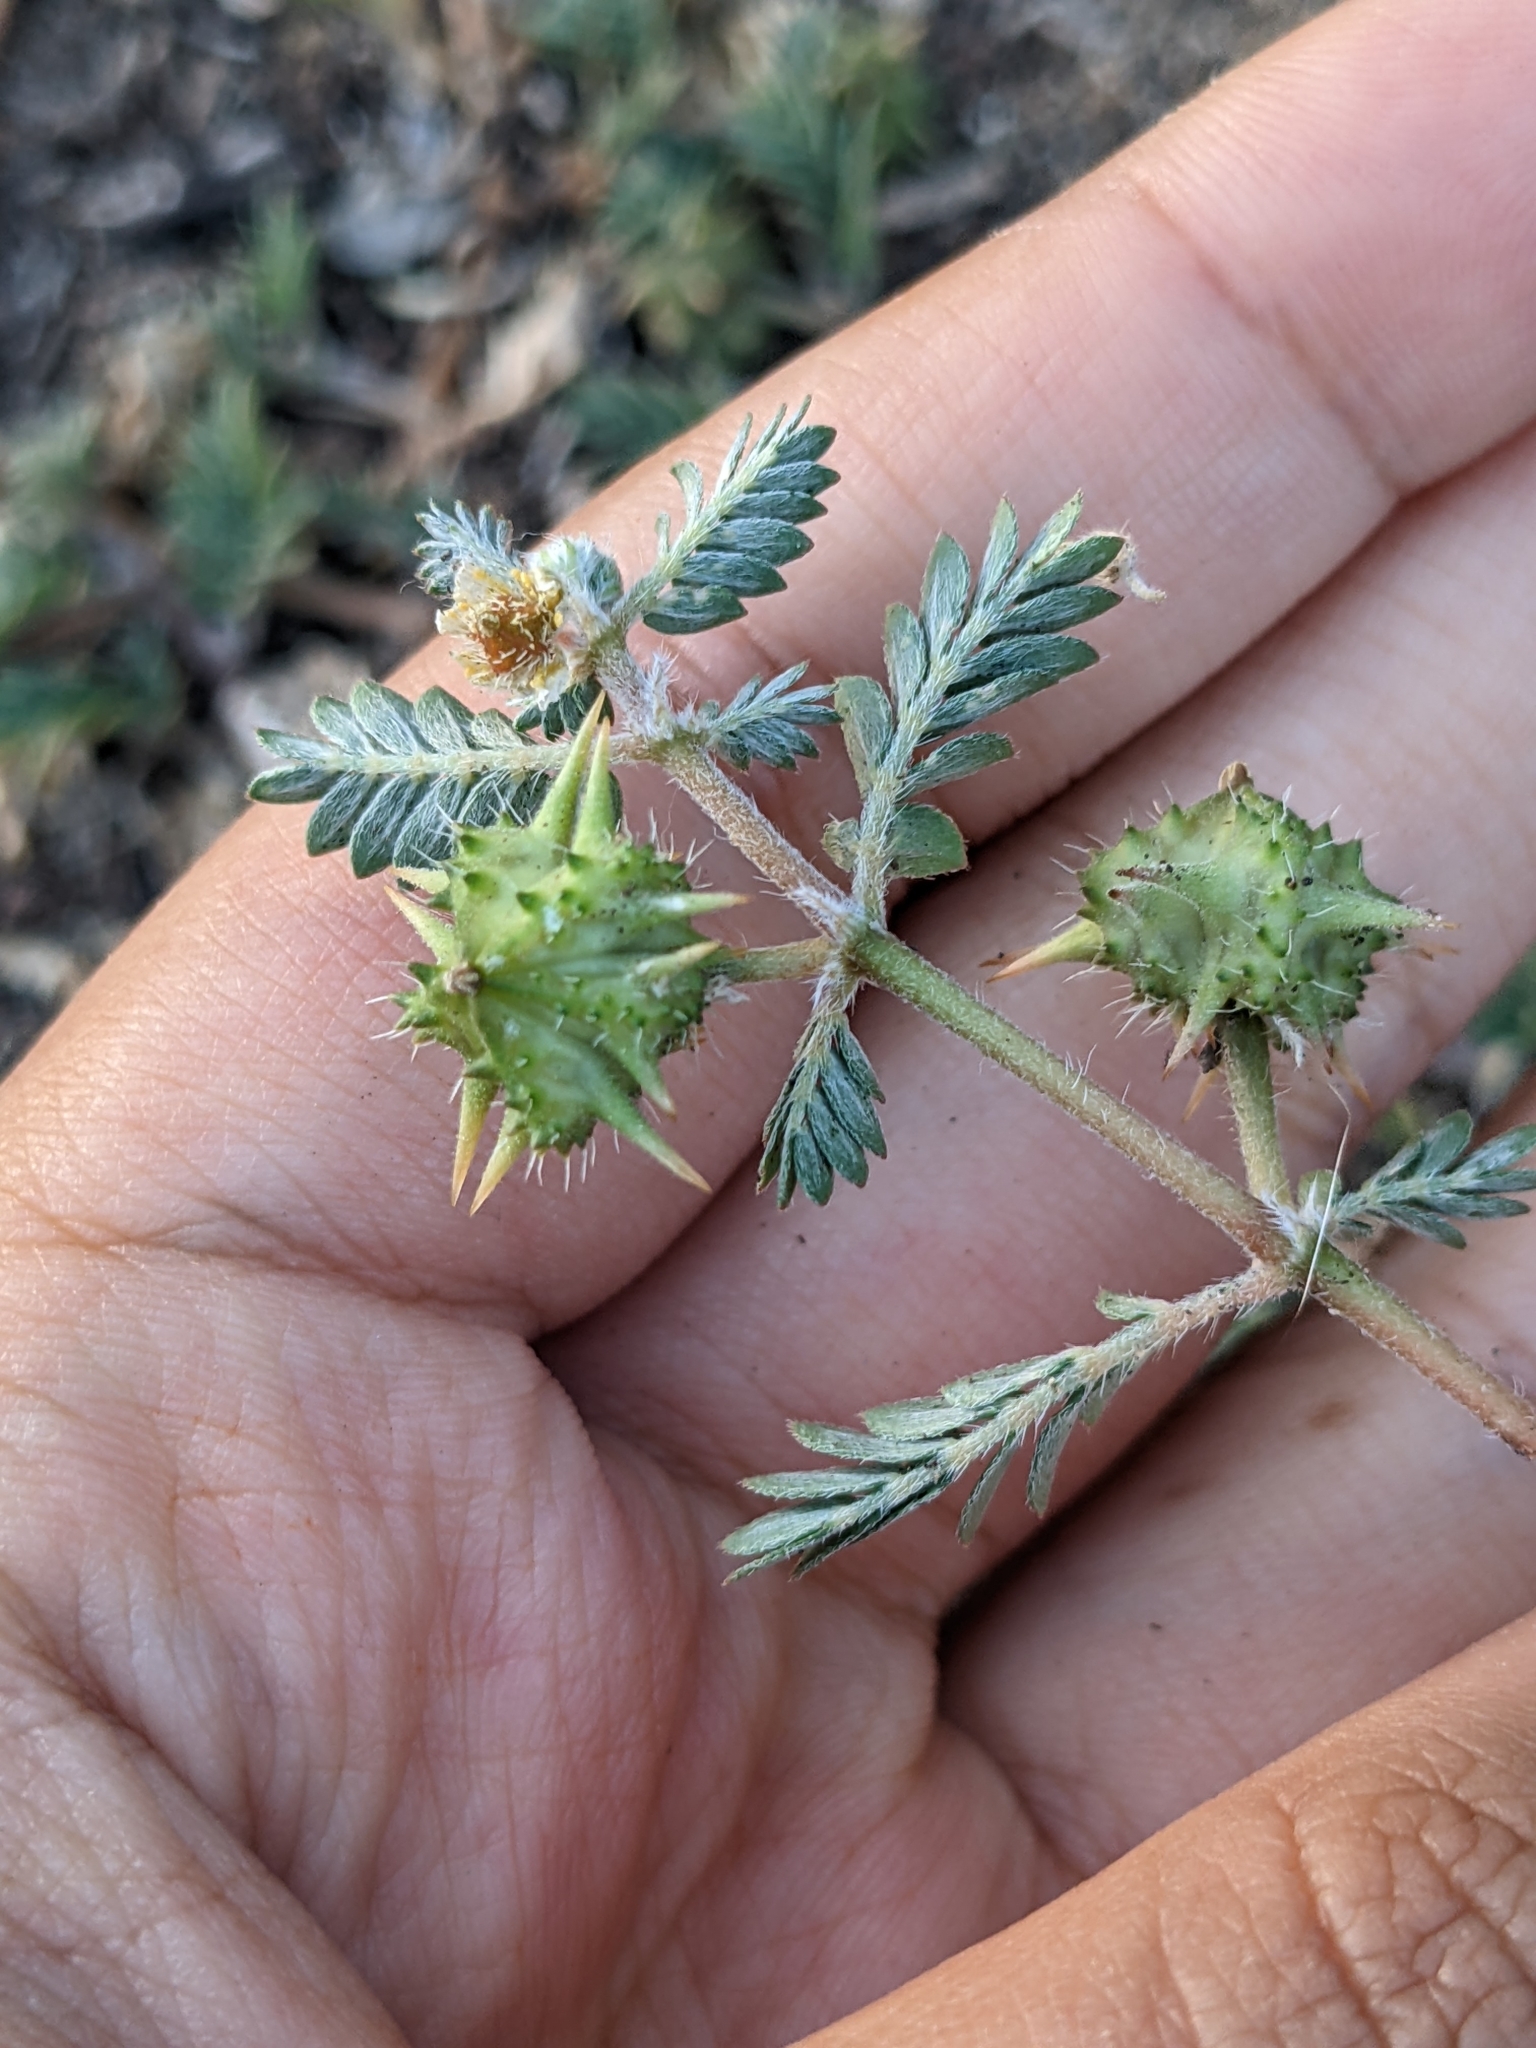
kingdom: Plantae
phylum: Tracheophyta
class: Magnoliopsida
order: Zygophyllales
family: Zygophyllaceae
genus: Tribulus
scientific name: Tribulus terrestris
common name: Puncturevine
